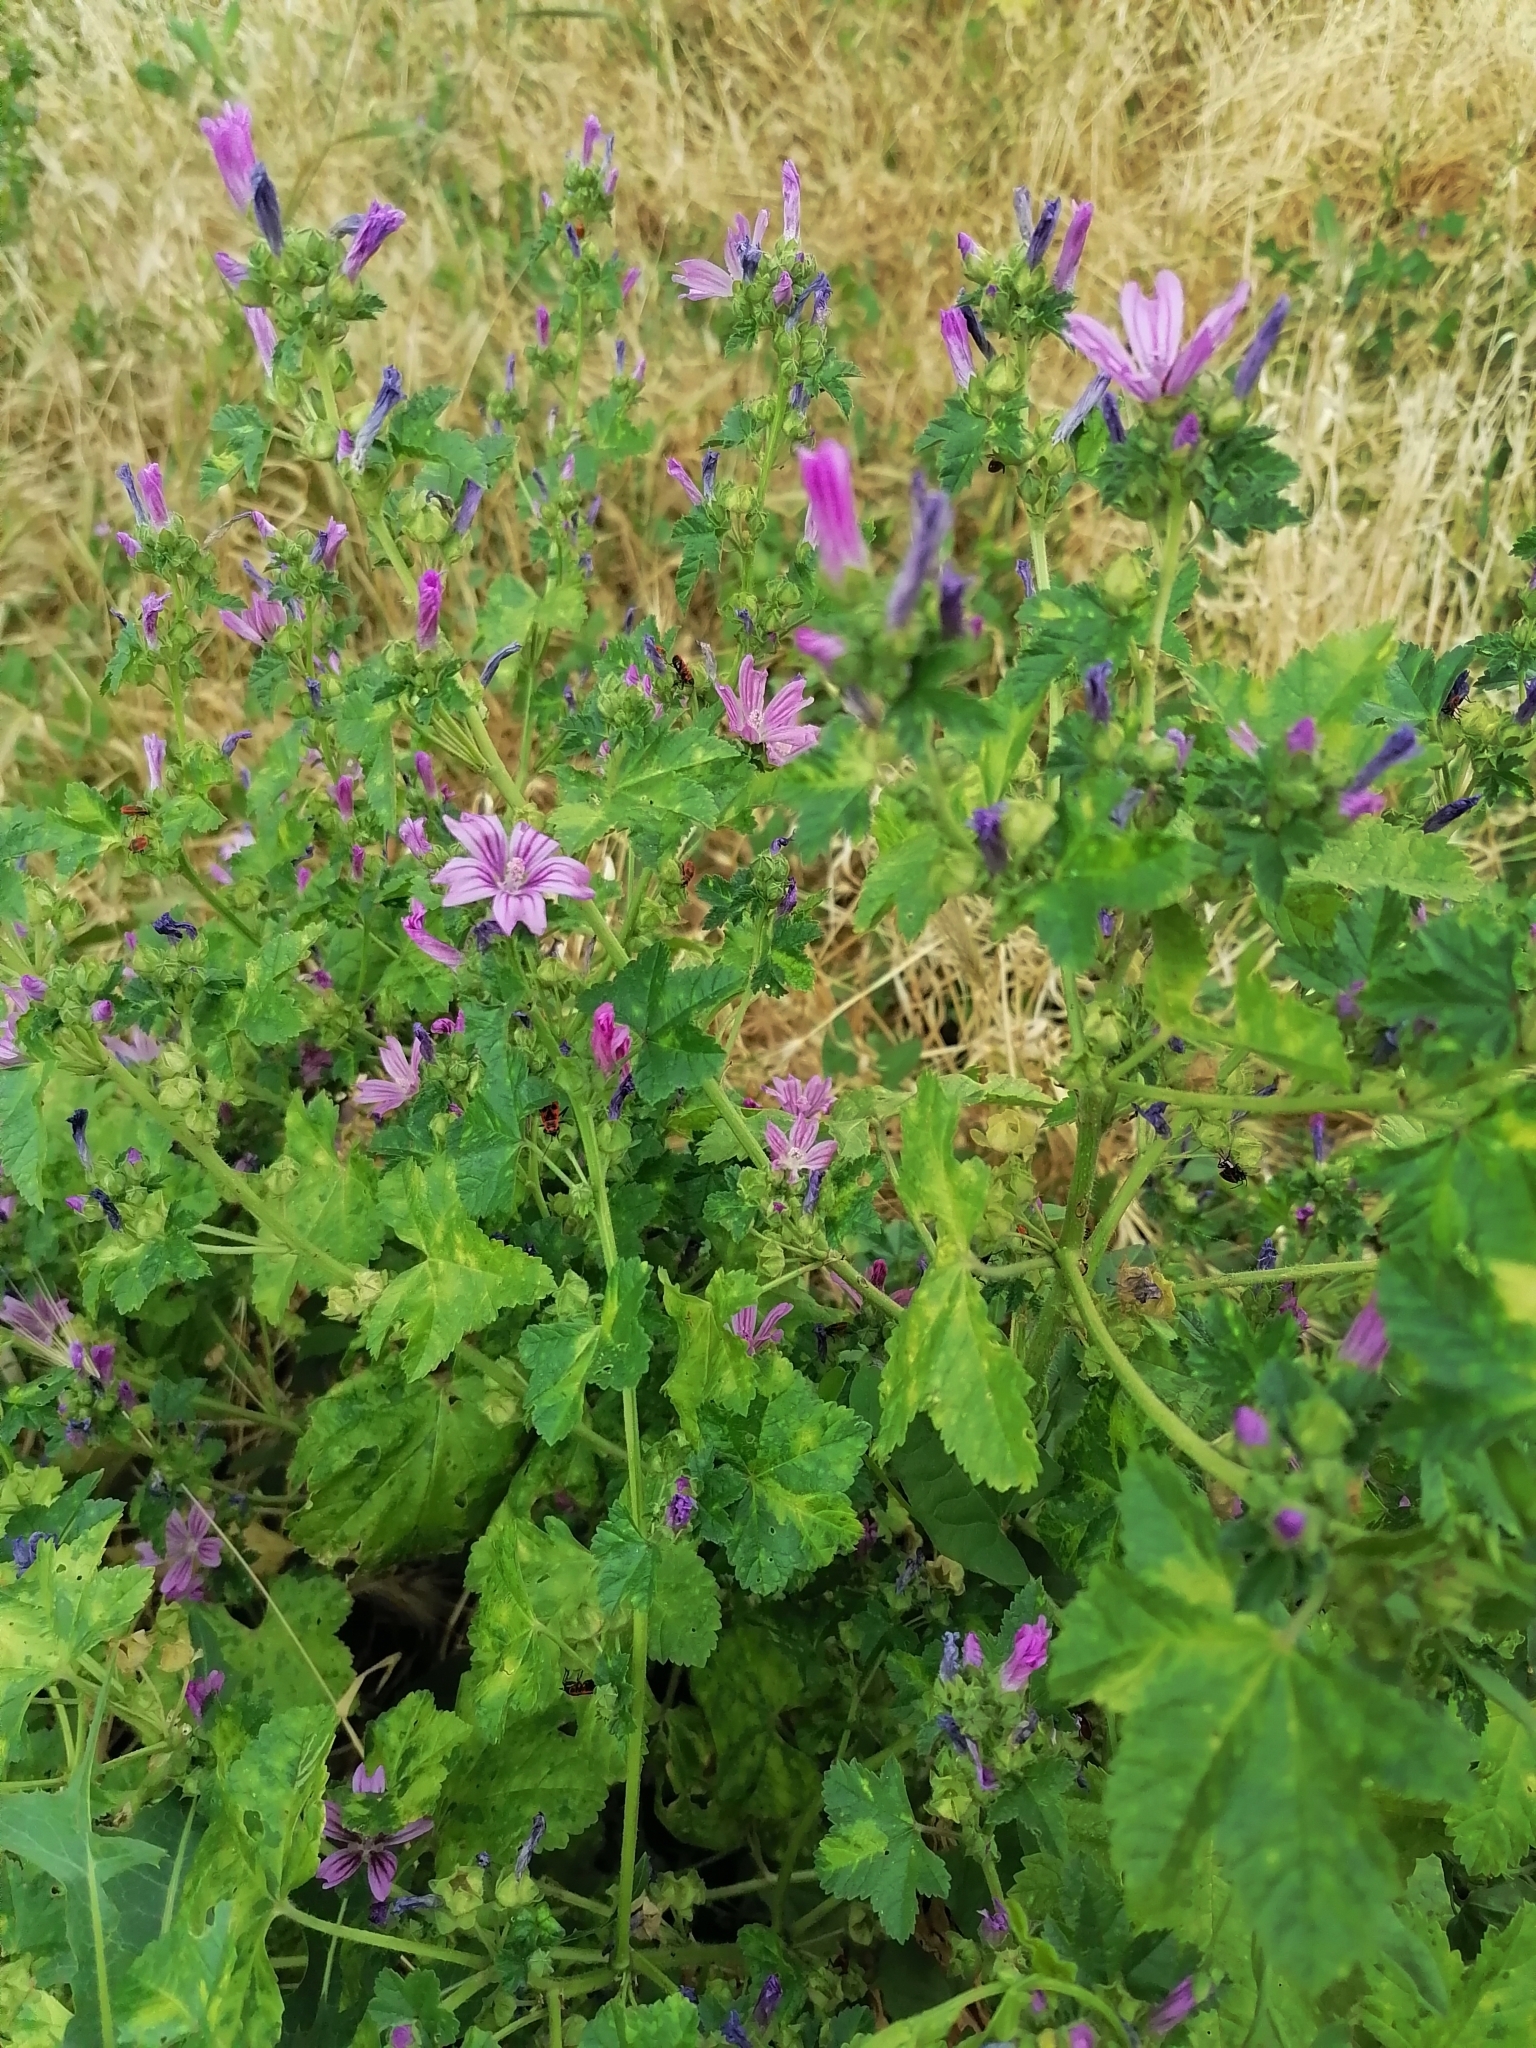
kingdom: Plantae
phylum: Tracheophyta
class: Magnoliopsida
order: Malvales
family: Malvaceae
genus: Malva
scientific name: Malva sylvestris
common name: Common mallow
